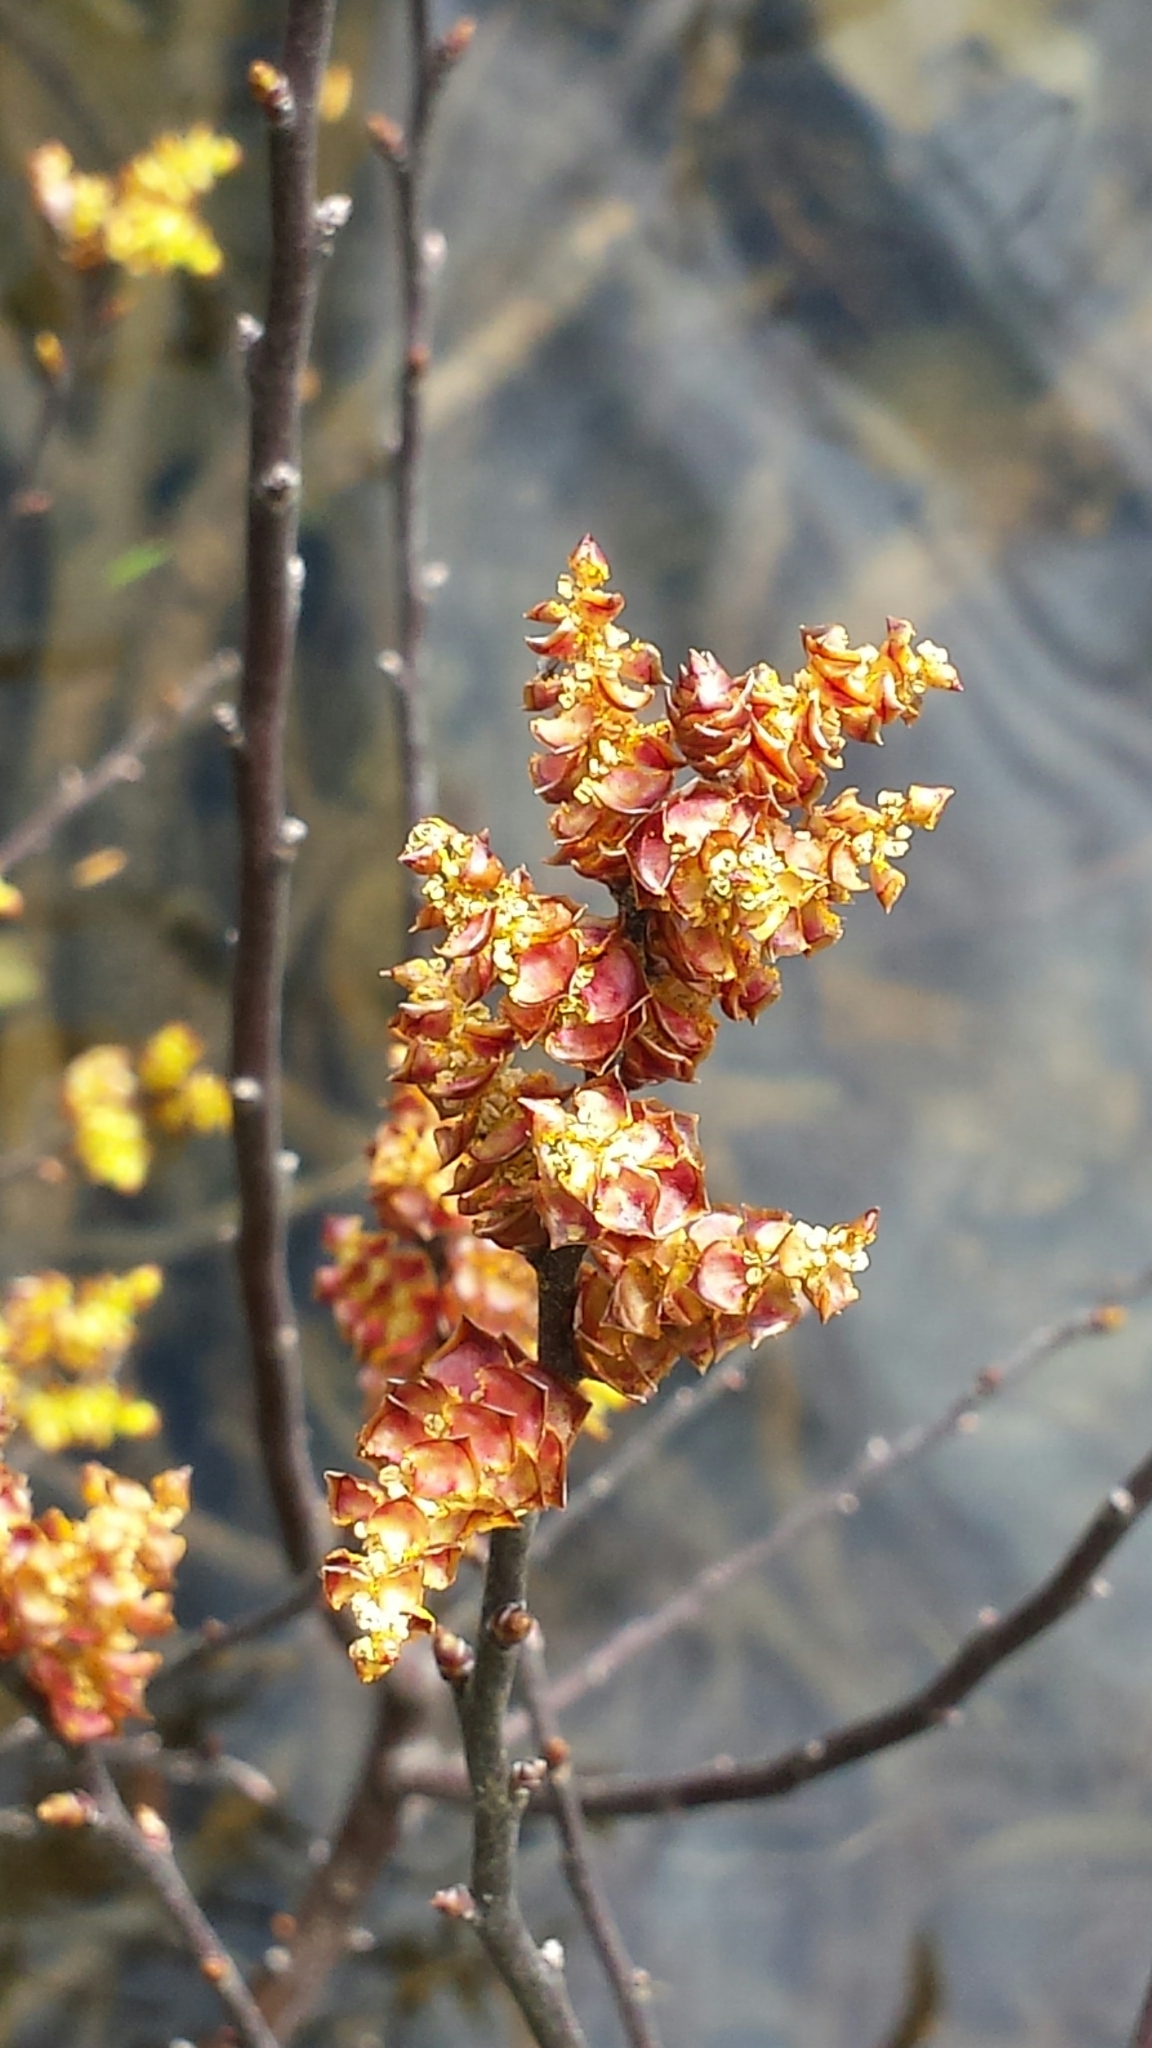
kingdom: Plantae
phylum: Tracheophyta
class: Magnoliopsida
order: Ericales
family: Ericaceae
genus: Chamaedaphne
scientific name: Chamaedaphne calyculata
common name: Leatherleaf
